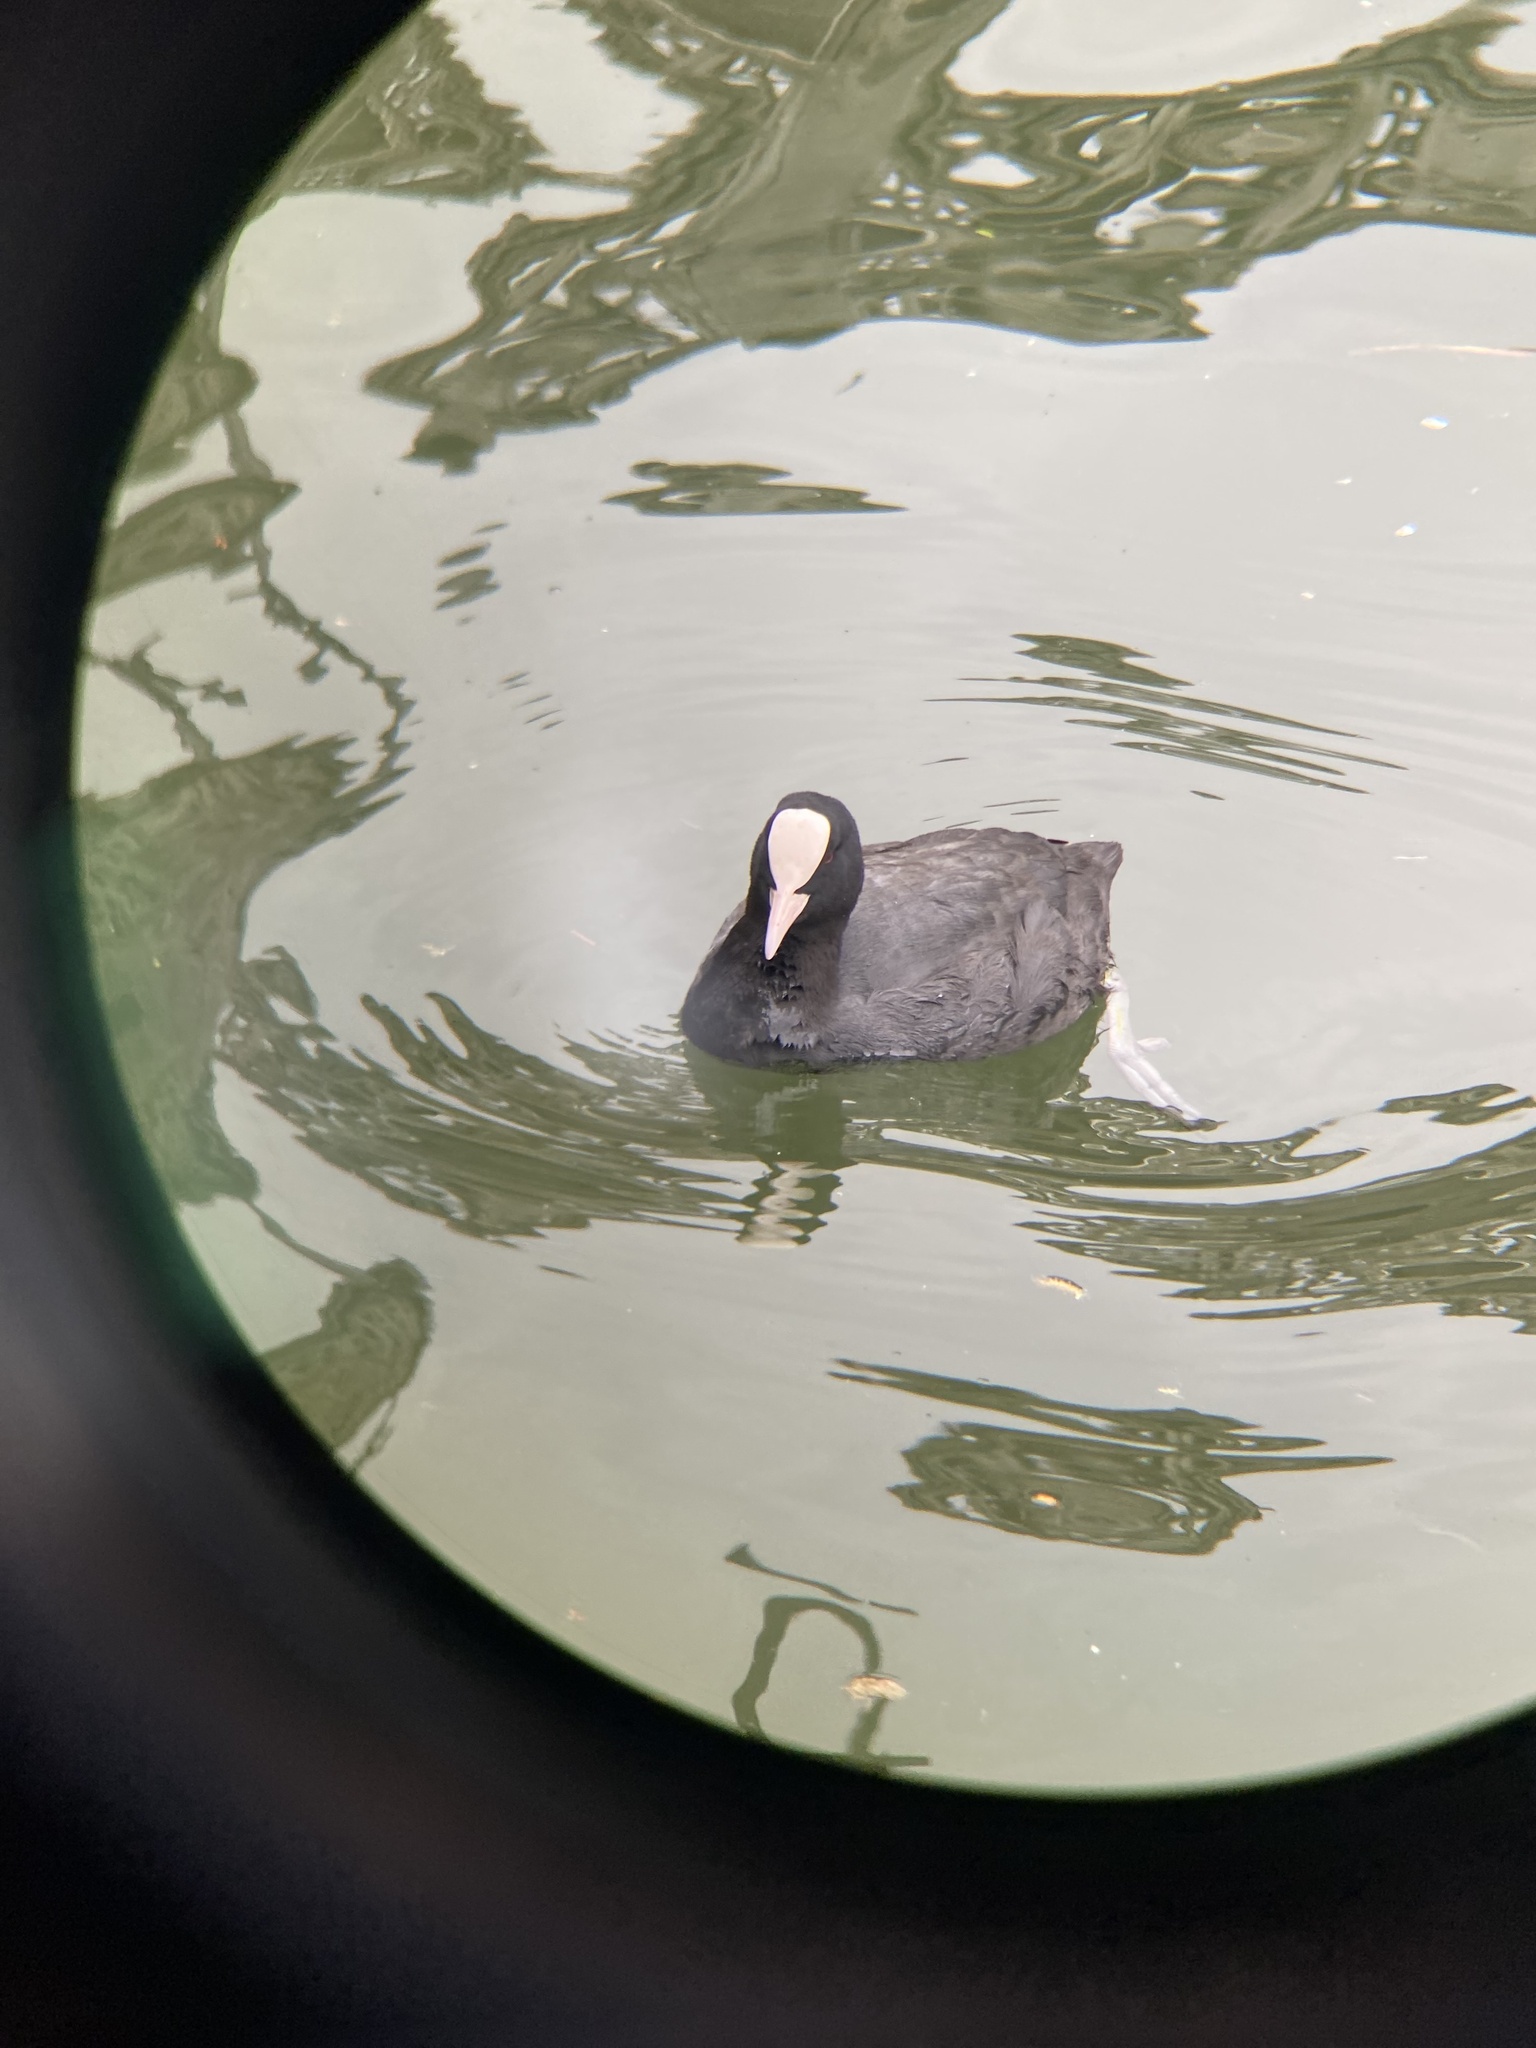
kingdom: Animalia
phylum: Chordata
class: Aves
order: Gruiformes
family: Rallidae
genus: Fulica
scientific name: Fulica atra
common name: Eurasian coot
